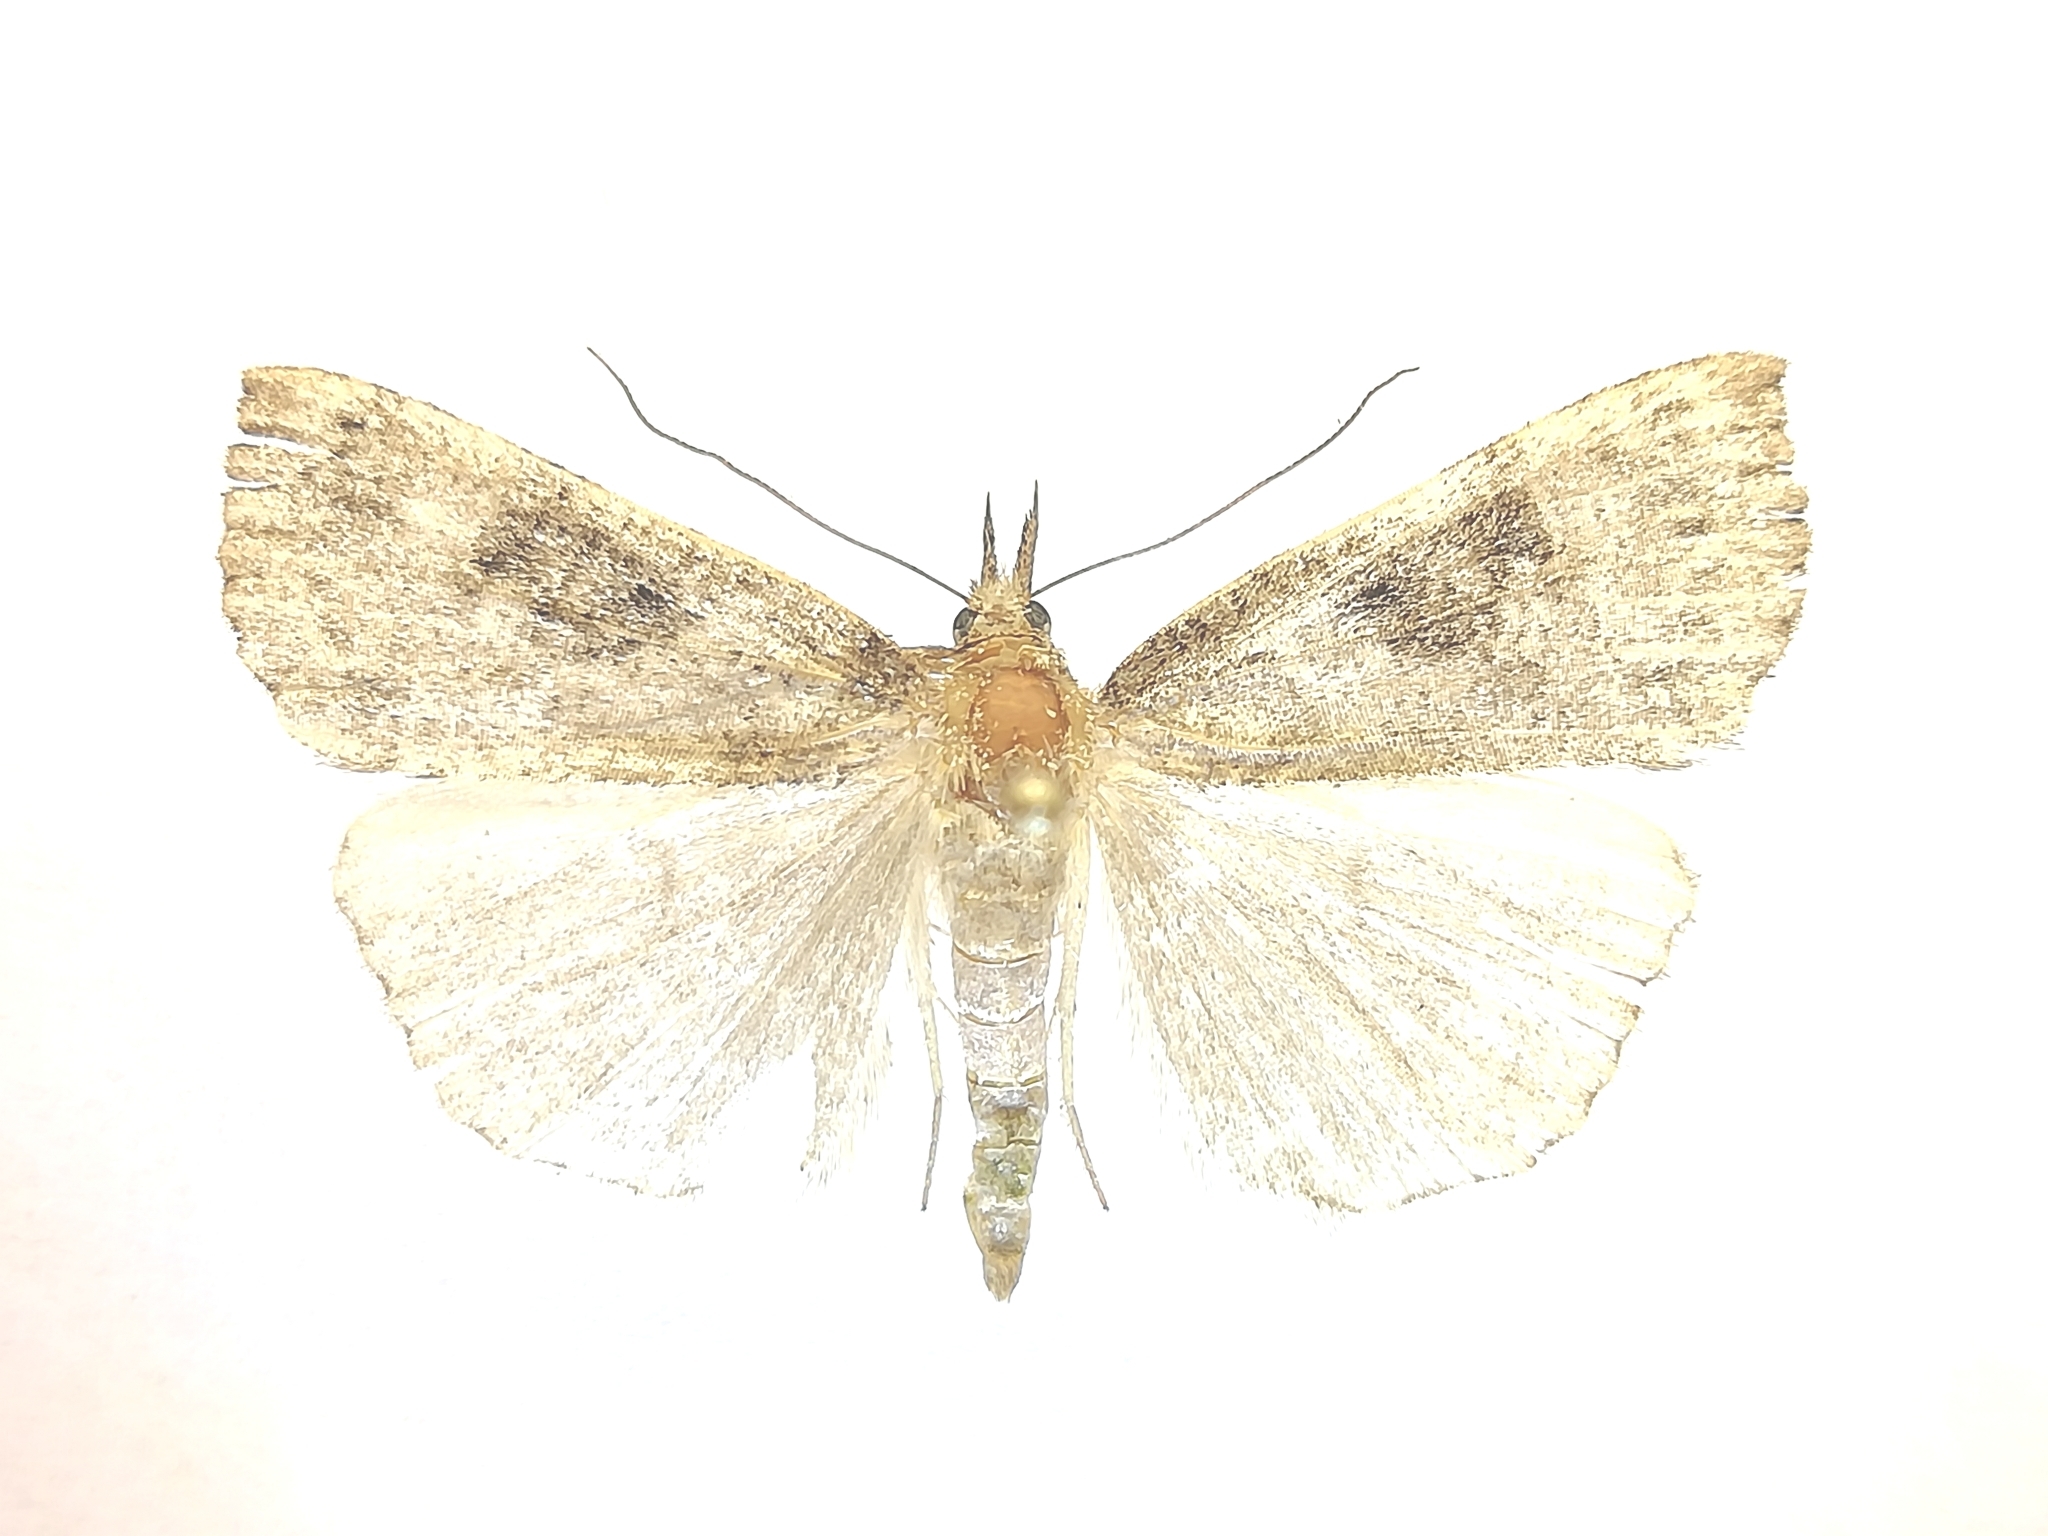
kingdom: Animalia
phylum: Arthropoda
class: Insecta
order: Lepidoptera
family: Erebidae
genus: Hypena
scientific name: Hypena tristalis
